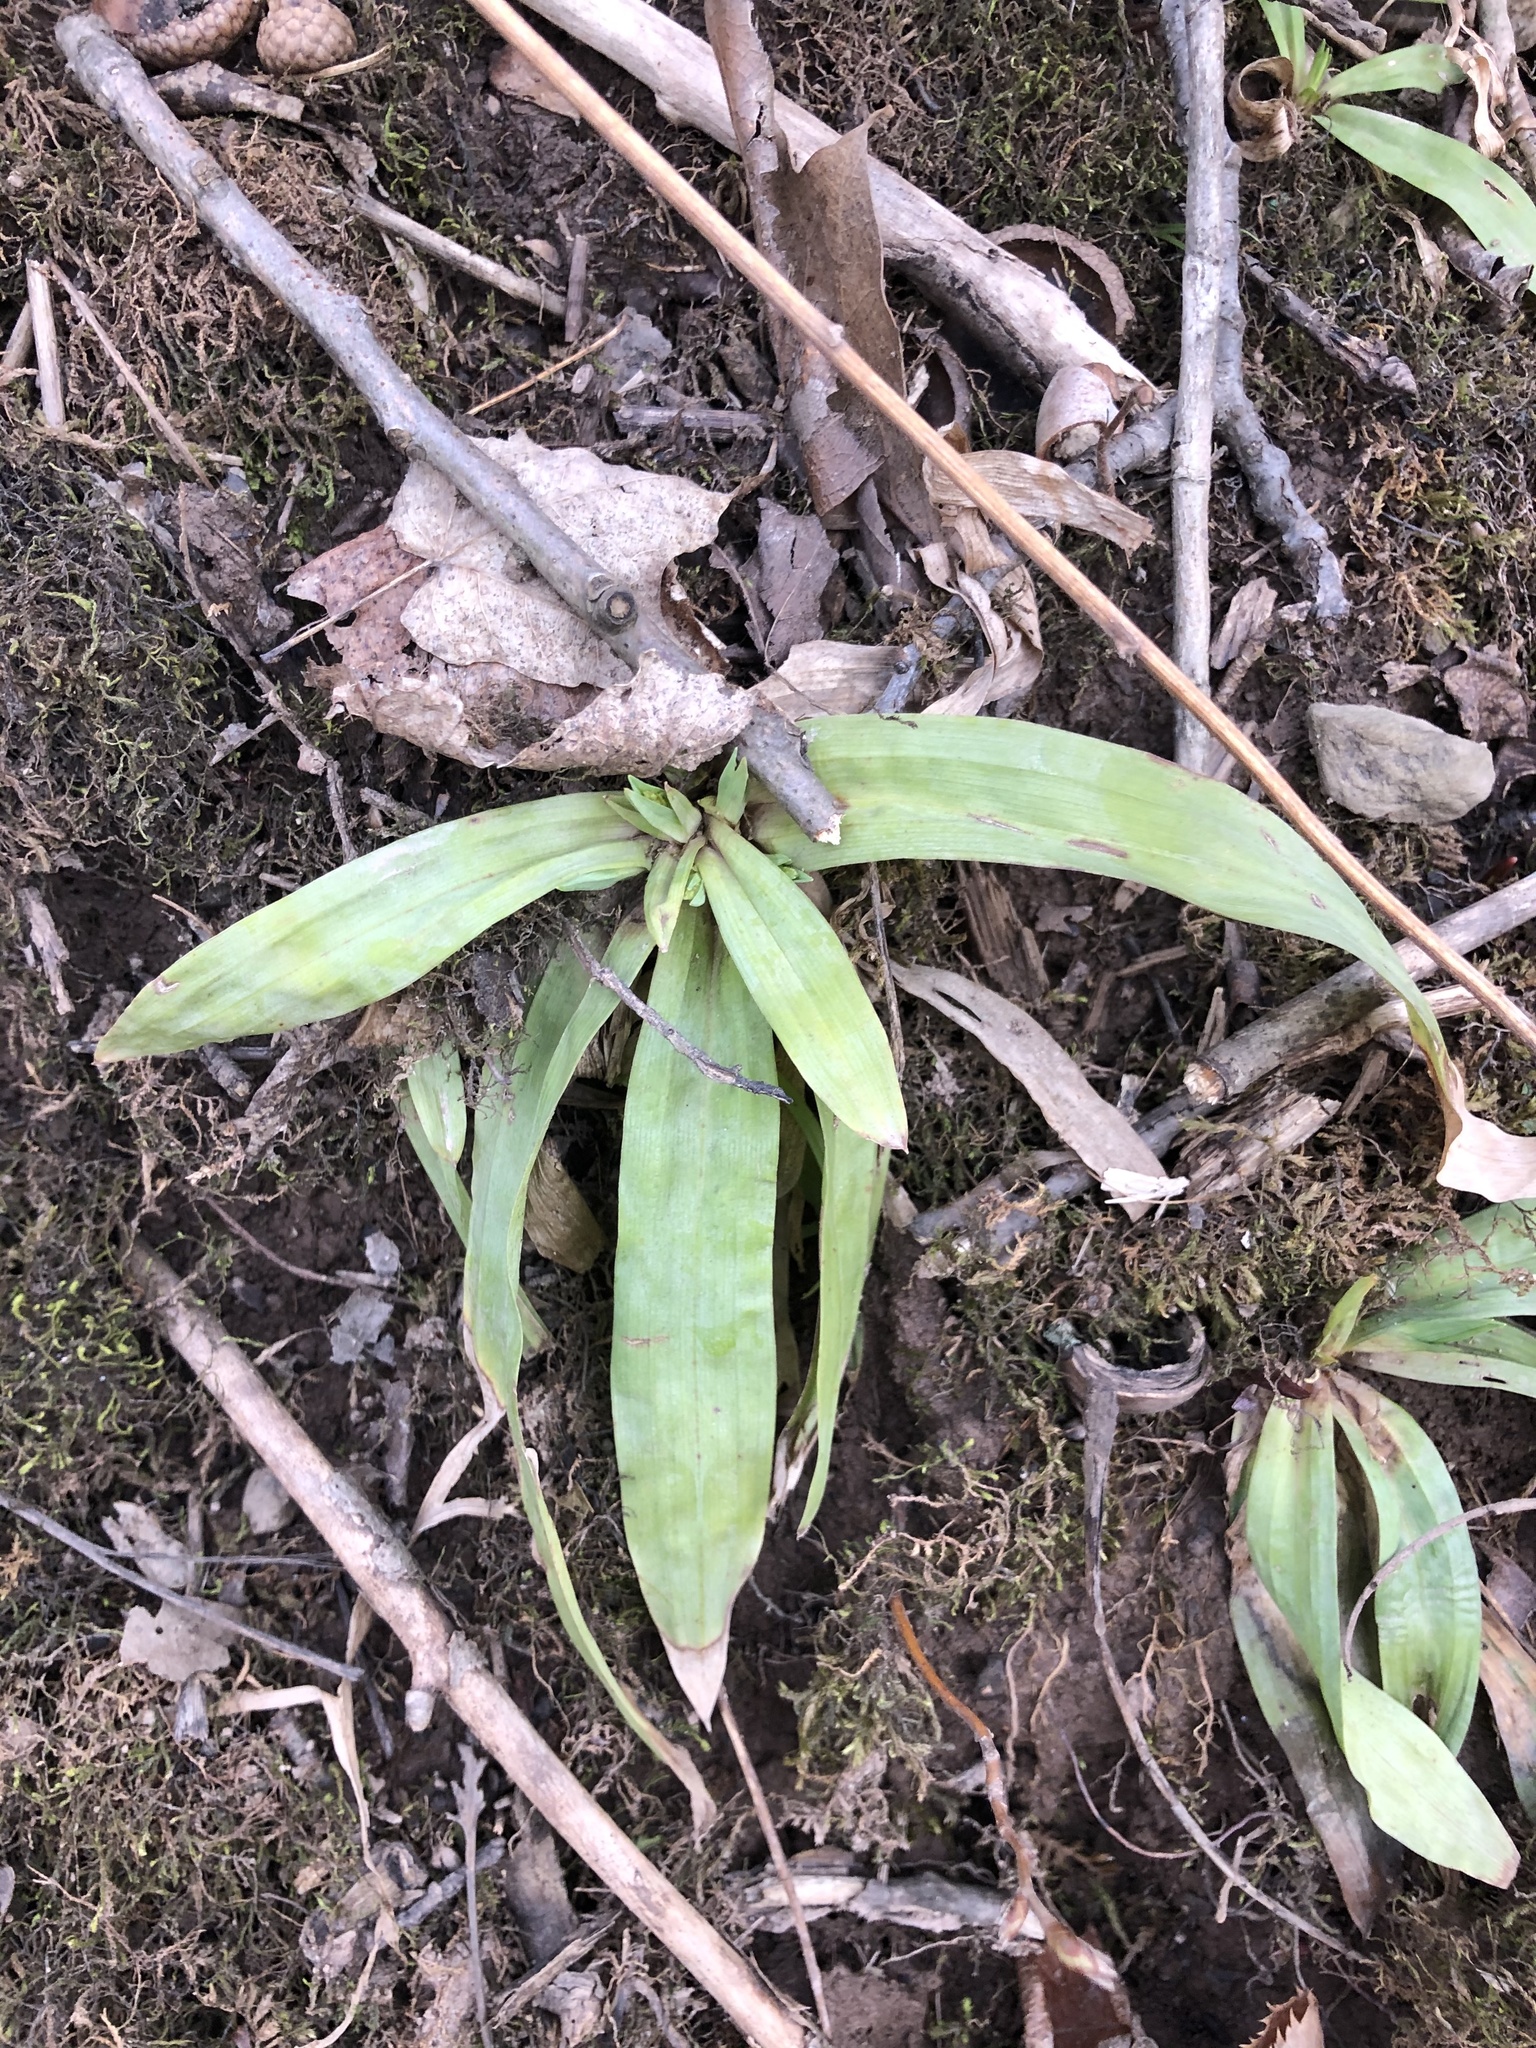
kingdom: Plantae
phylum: Tracheophyta
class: Liliopsida
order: Poales
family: Cyperaceae
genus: Carex
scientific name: Carex platyphylla
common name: Broad-leaved sedge
